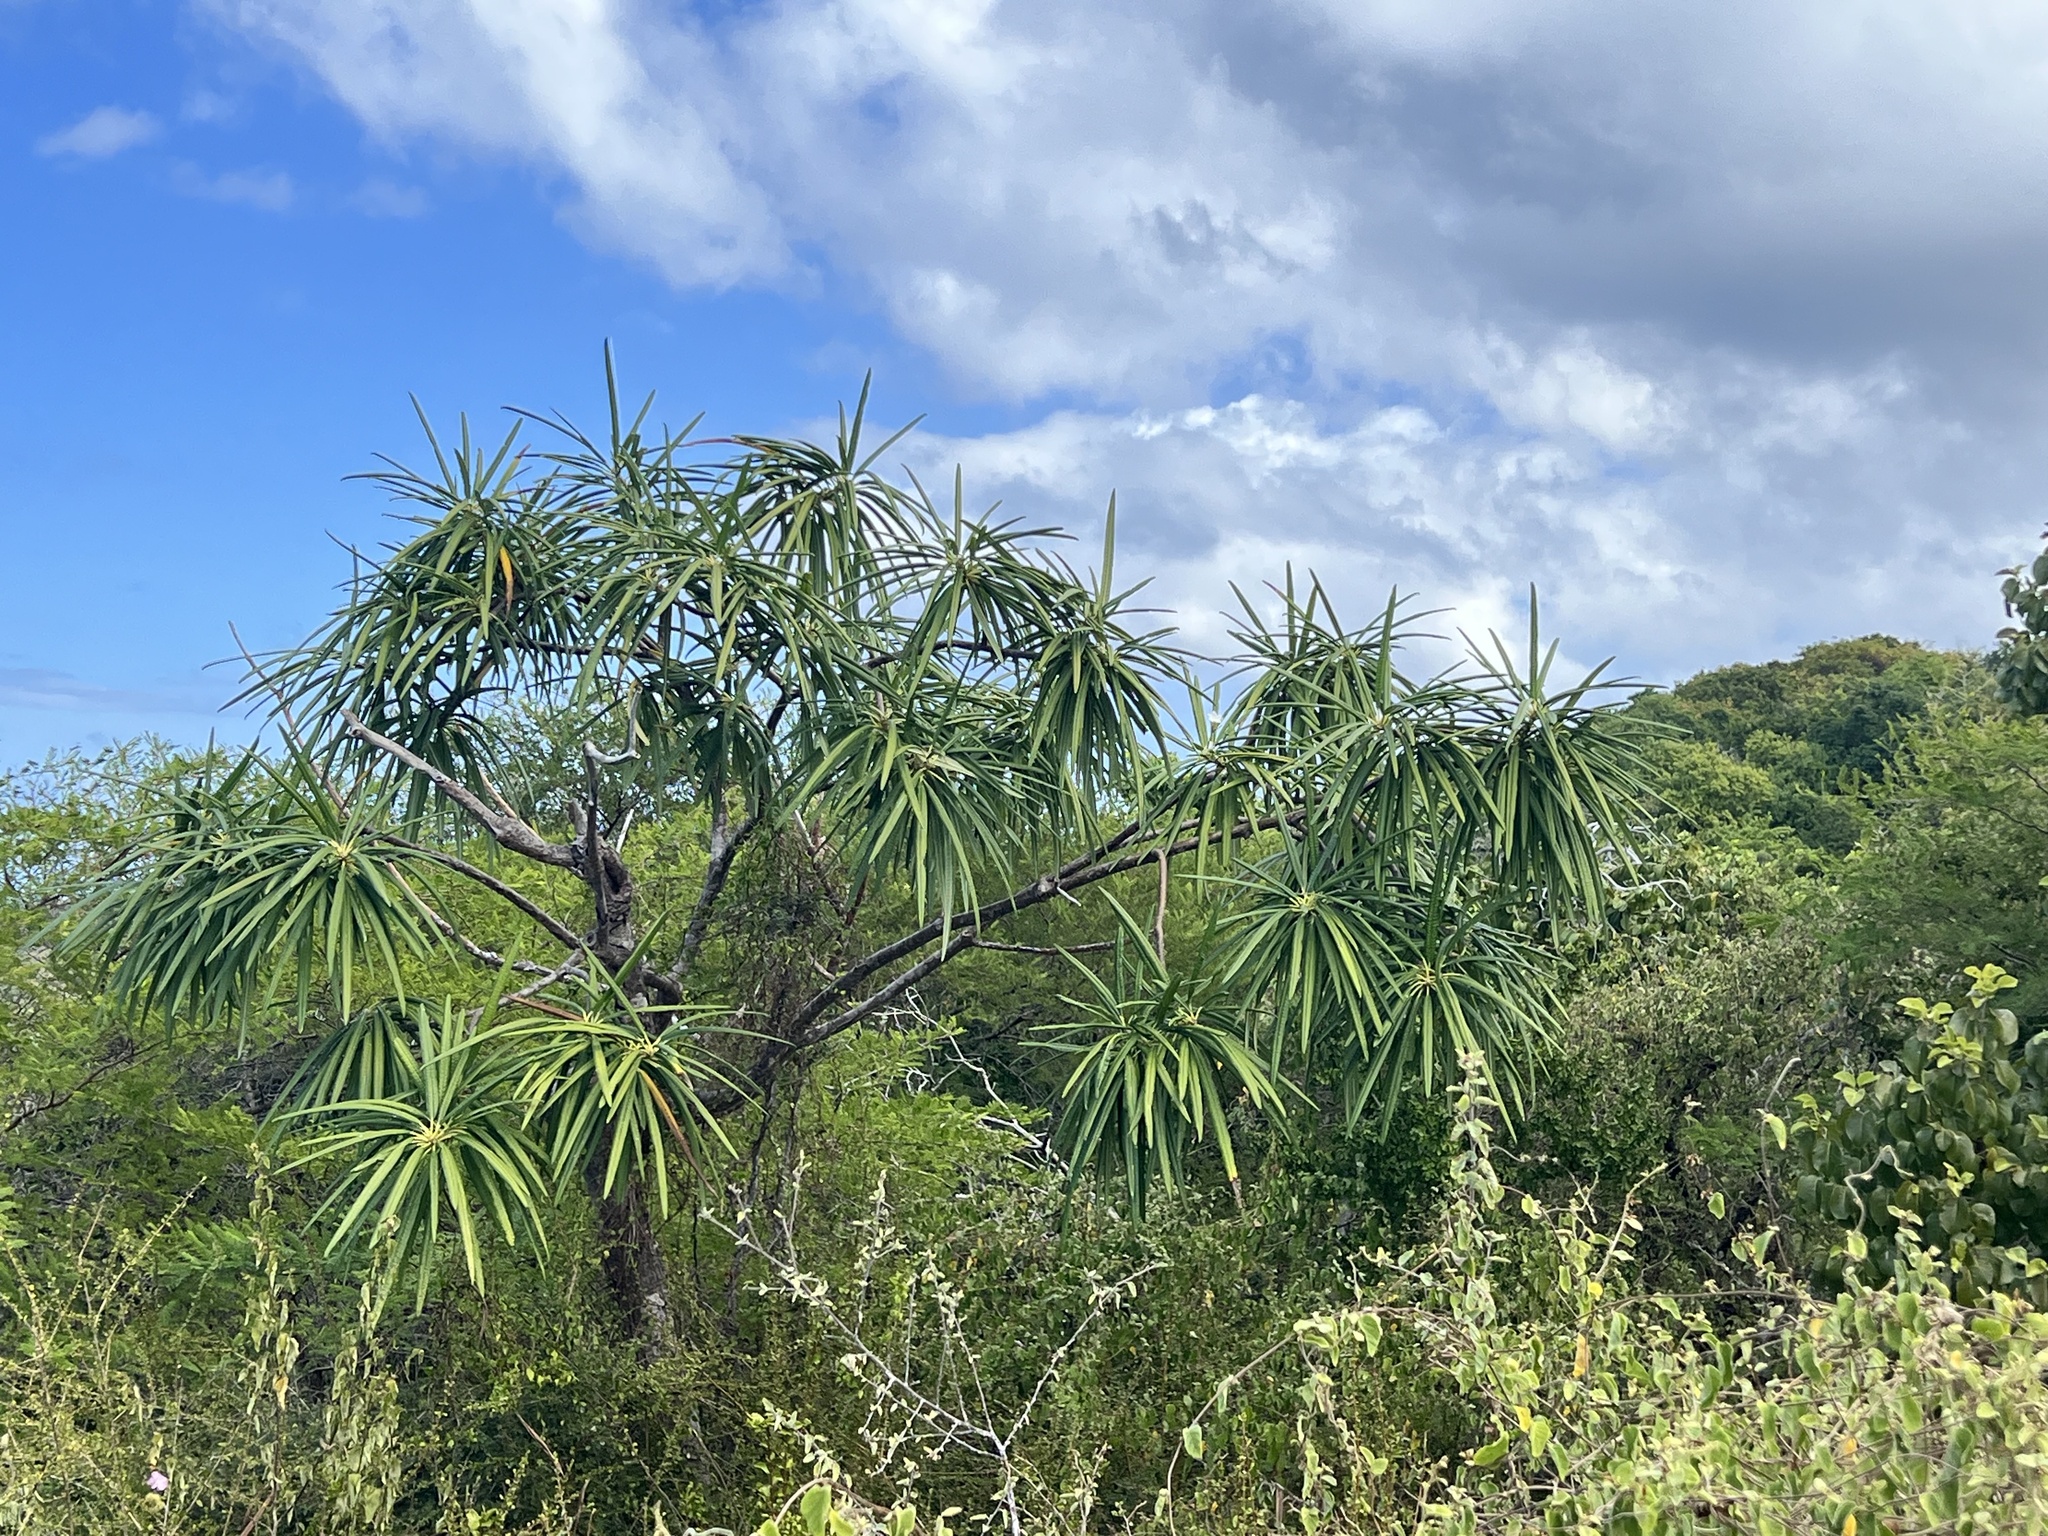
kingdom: Plantae
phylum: Tracheophyta
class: Magnoliopsida
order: Gentianales
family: Apocynaceae
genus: Plumeria
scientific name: Plumeria alba
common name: Wild frangipani
